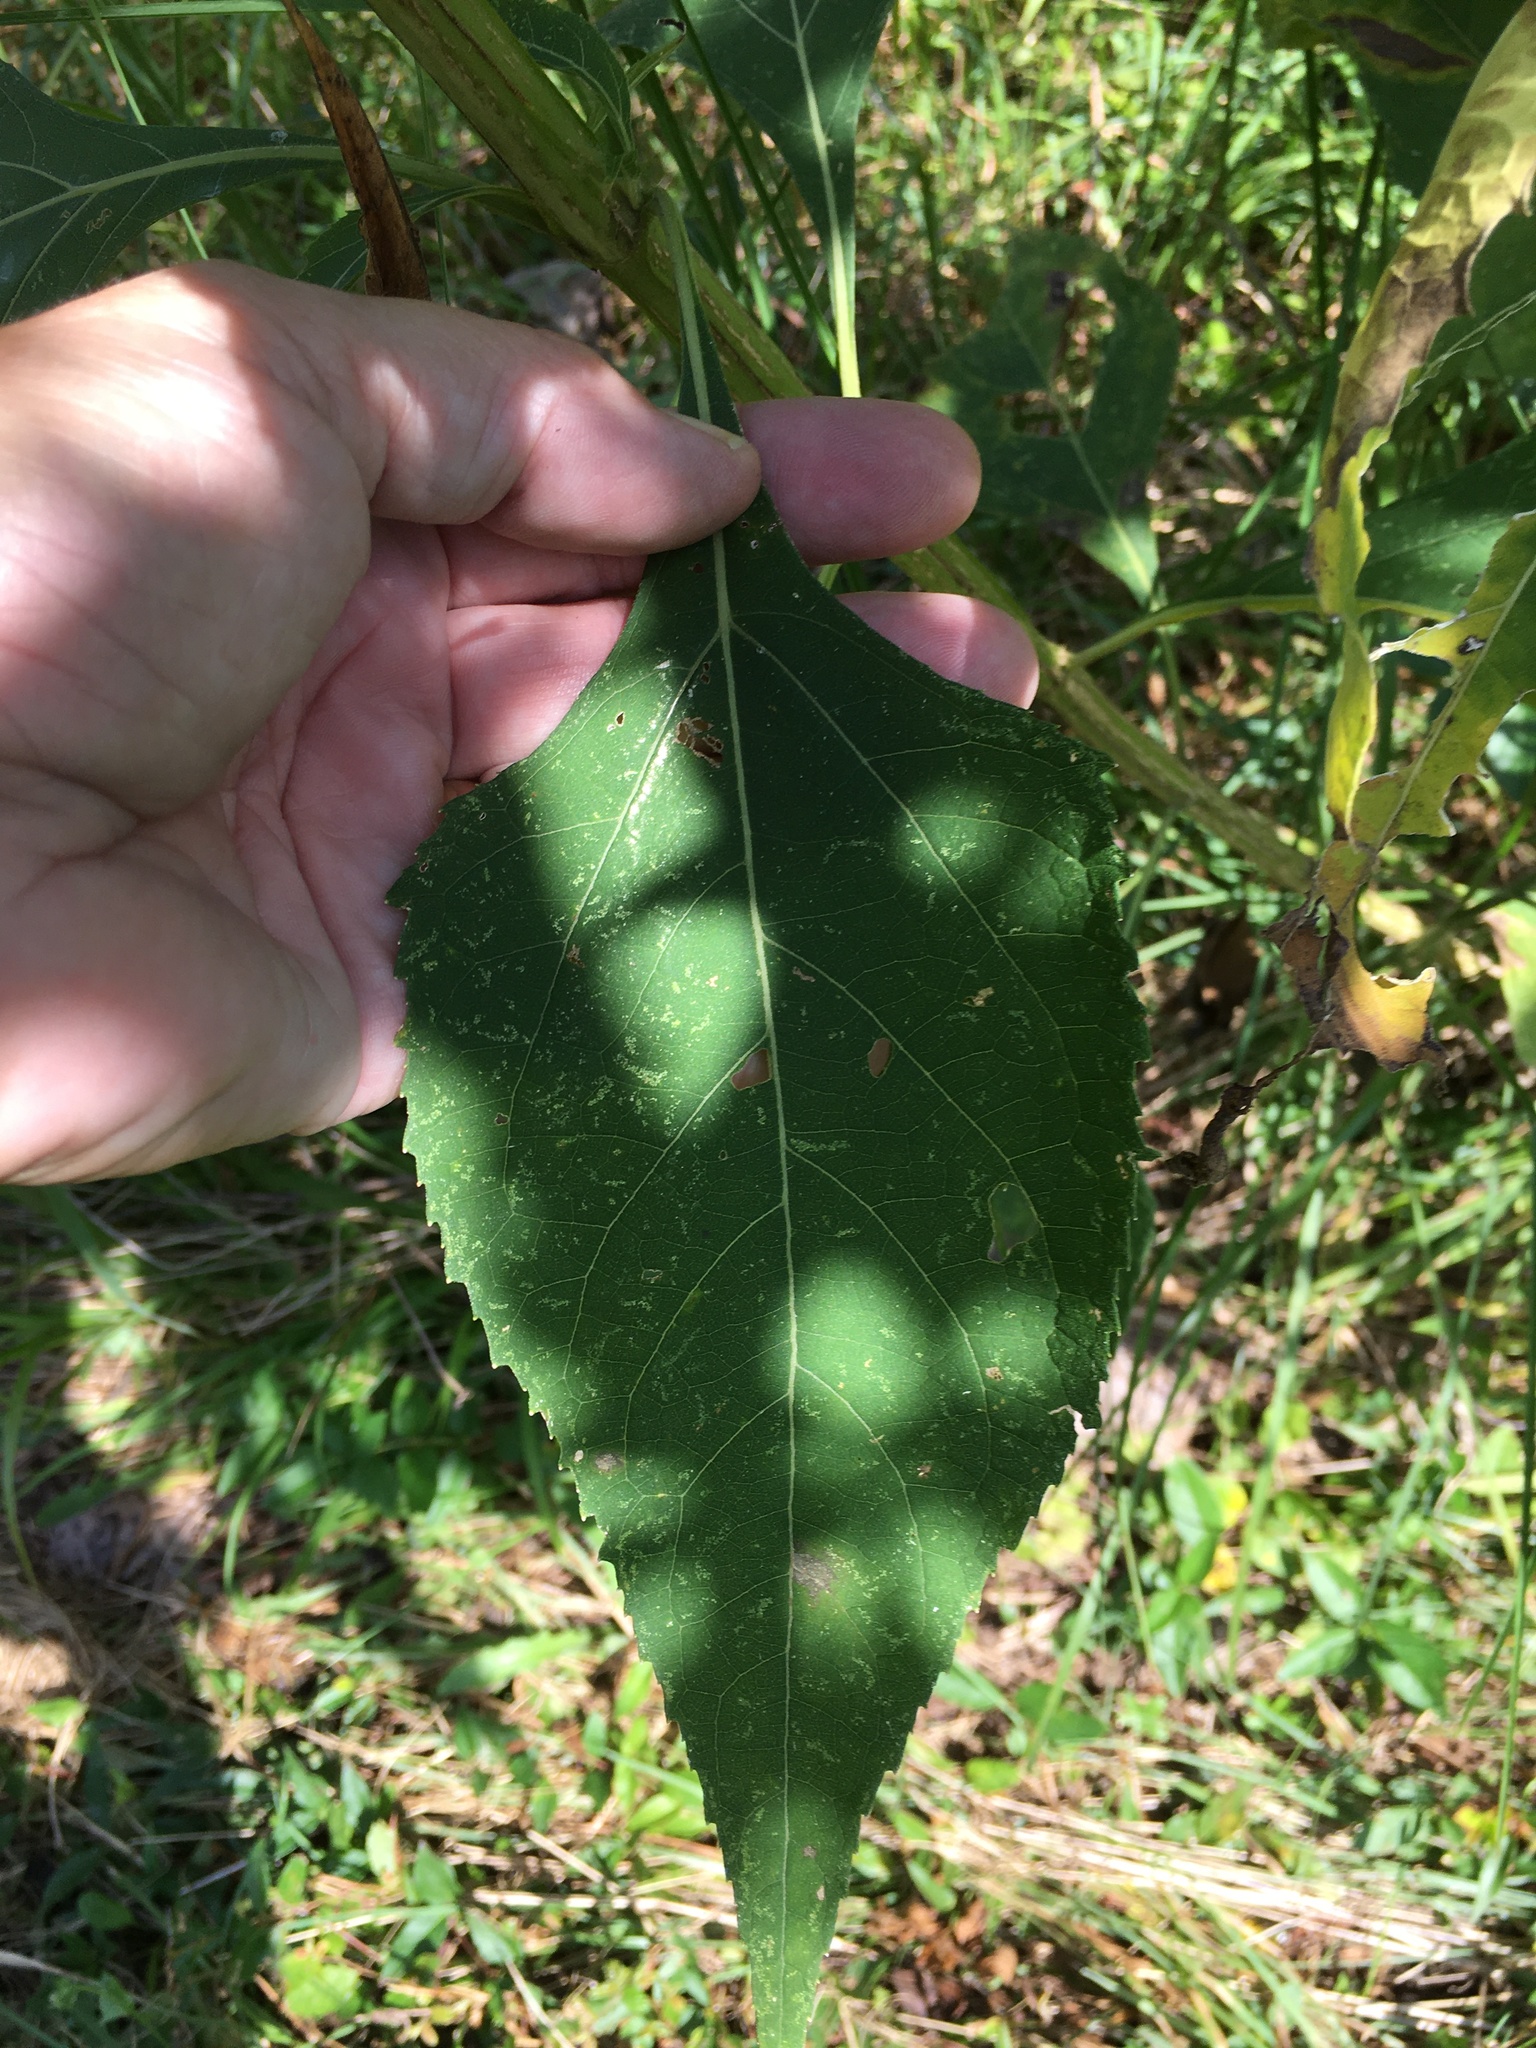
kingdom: Plantae
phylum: Tracheophyta
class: Magnoliopsida
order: Asterales
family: Asteraceae
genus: Verbesina
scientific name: Verbesina occidentalis
